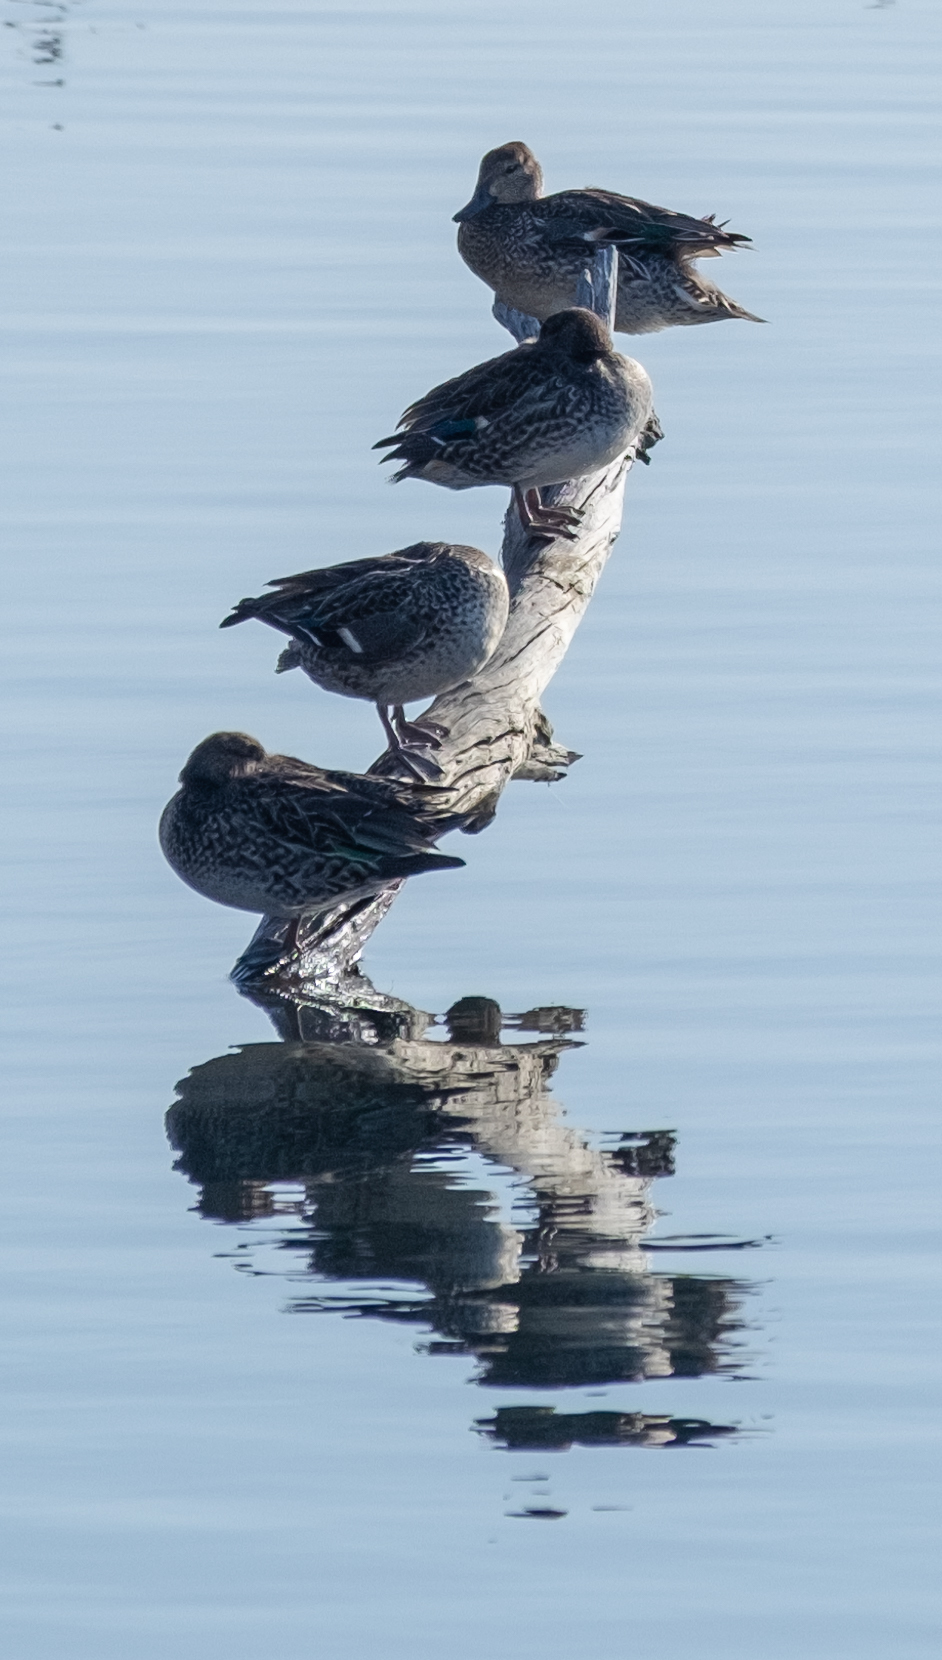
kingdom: Animalia
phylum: Chordata
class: Aves
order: Anseriformes
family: Anatidae
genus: Anas
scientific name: Anas crecca
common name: Eurasian teal
